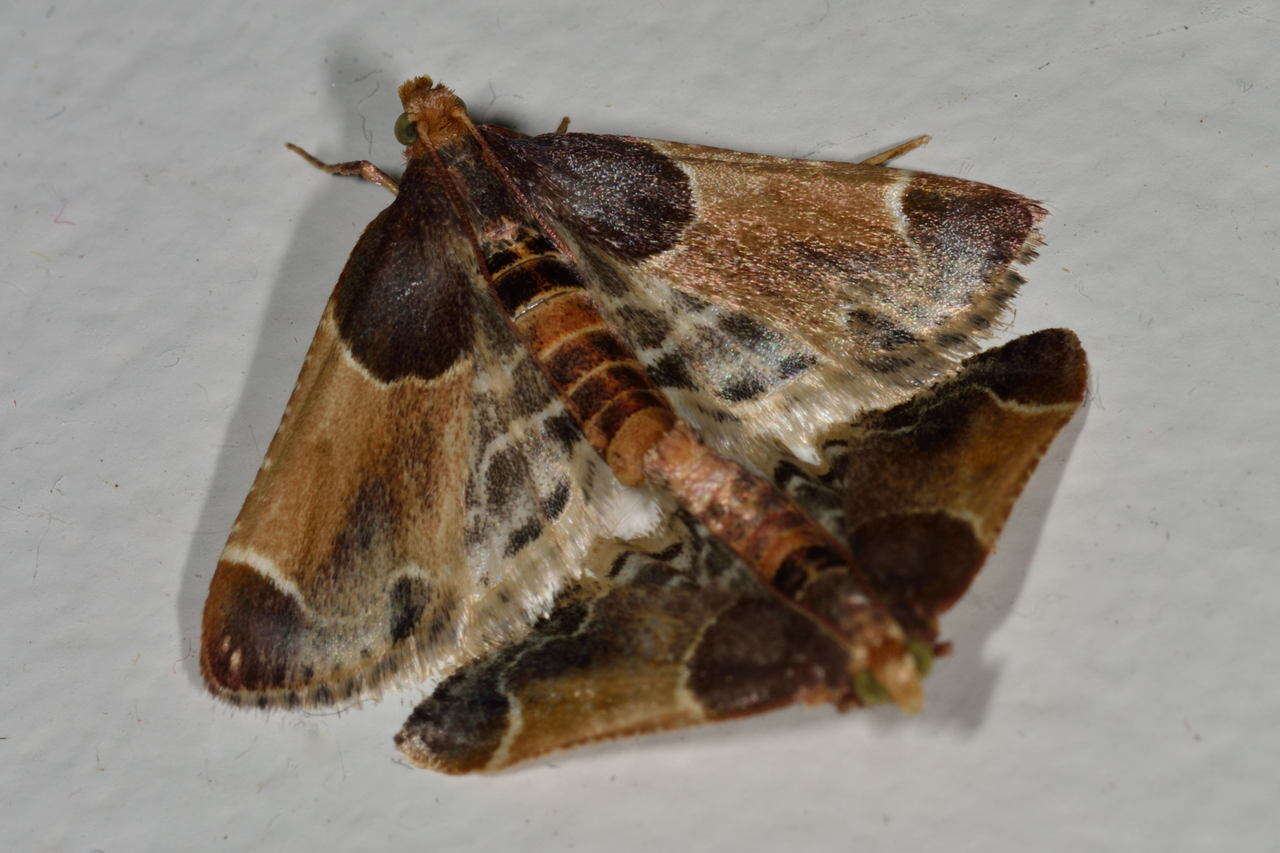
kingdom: Animalia
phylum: Arthropoda
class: Insecta
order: Lepidoptera
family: Pyralidae
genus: Pyralis
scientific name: Pyralis farinalis
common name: Meal moth
